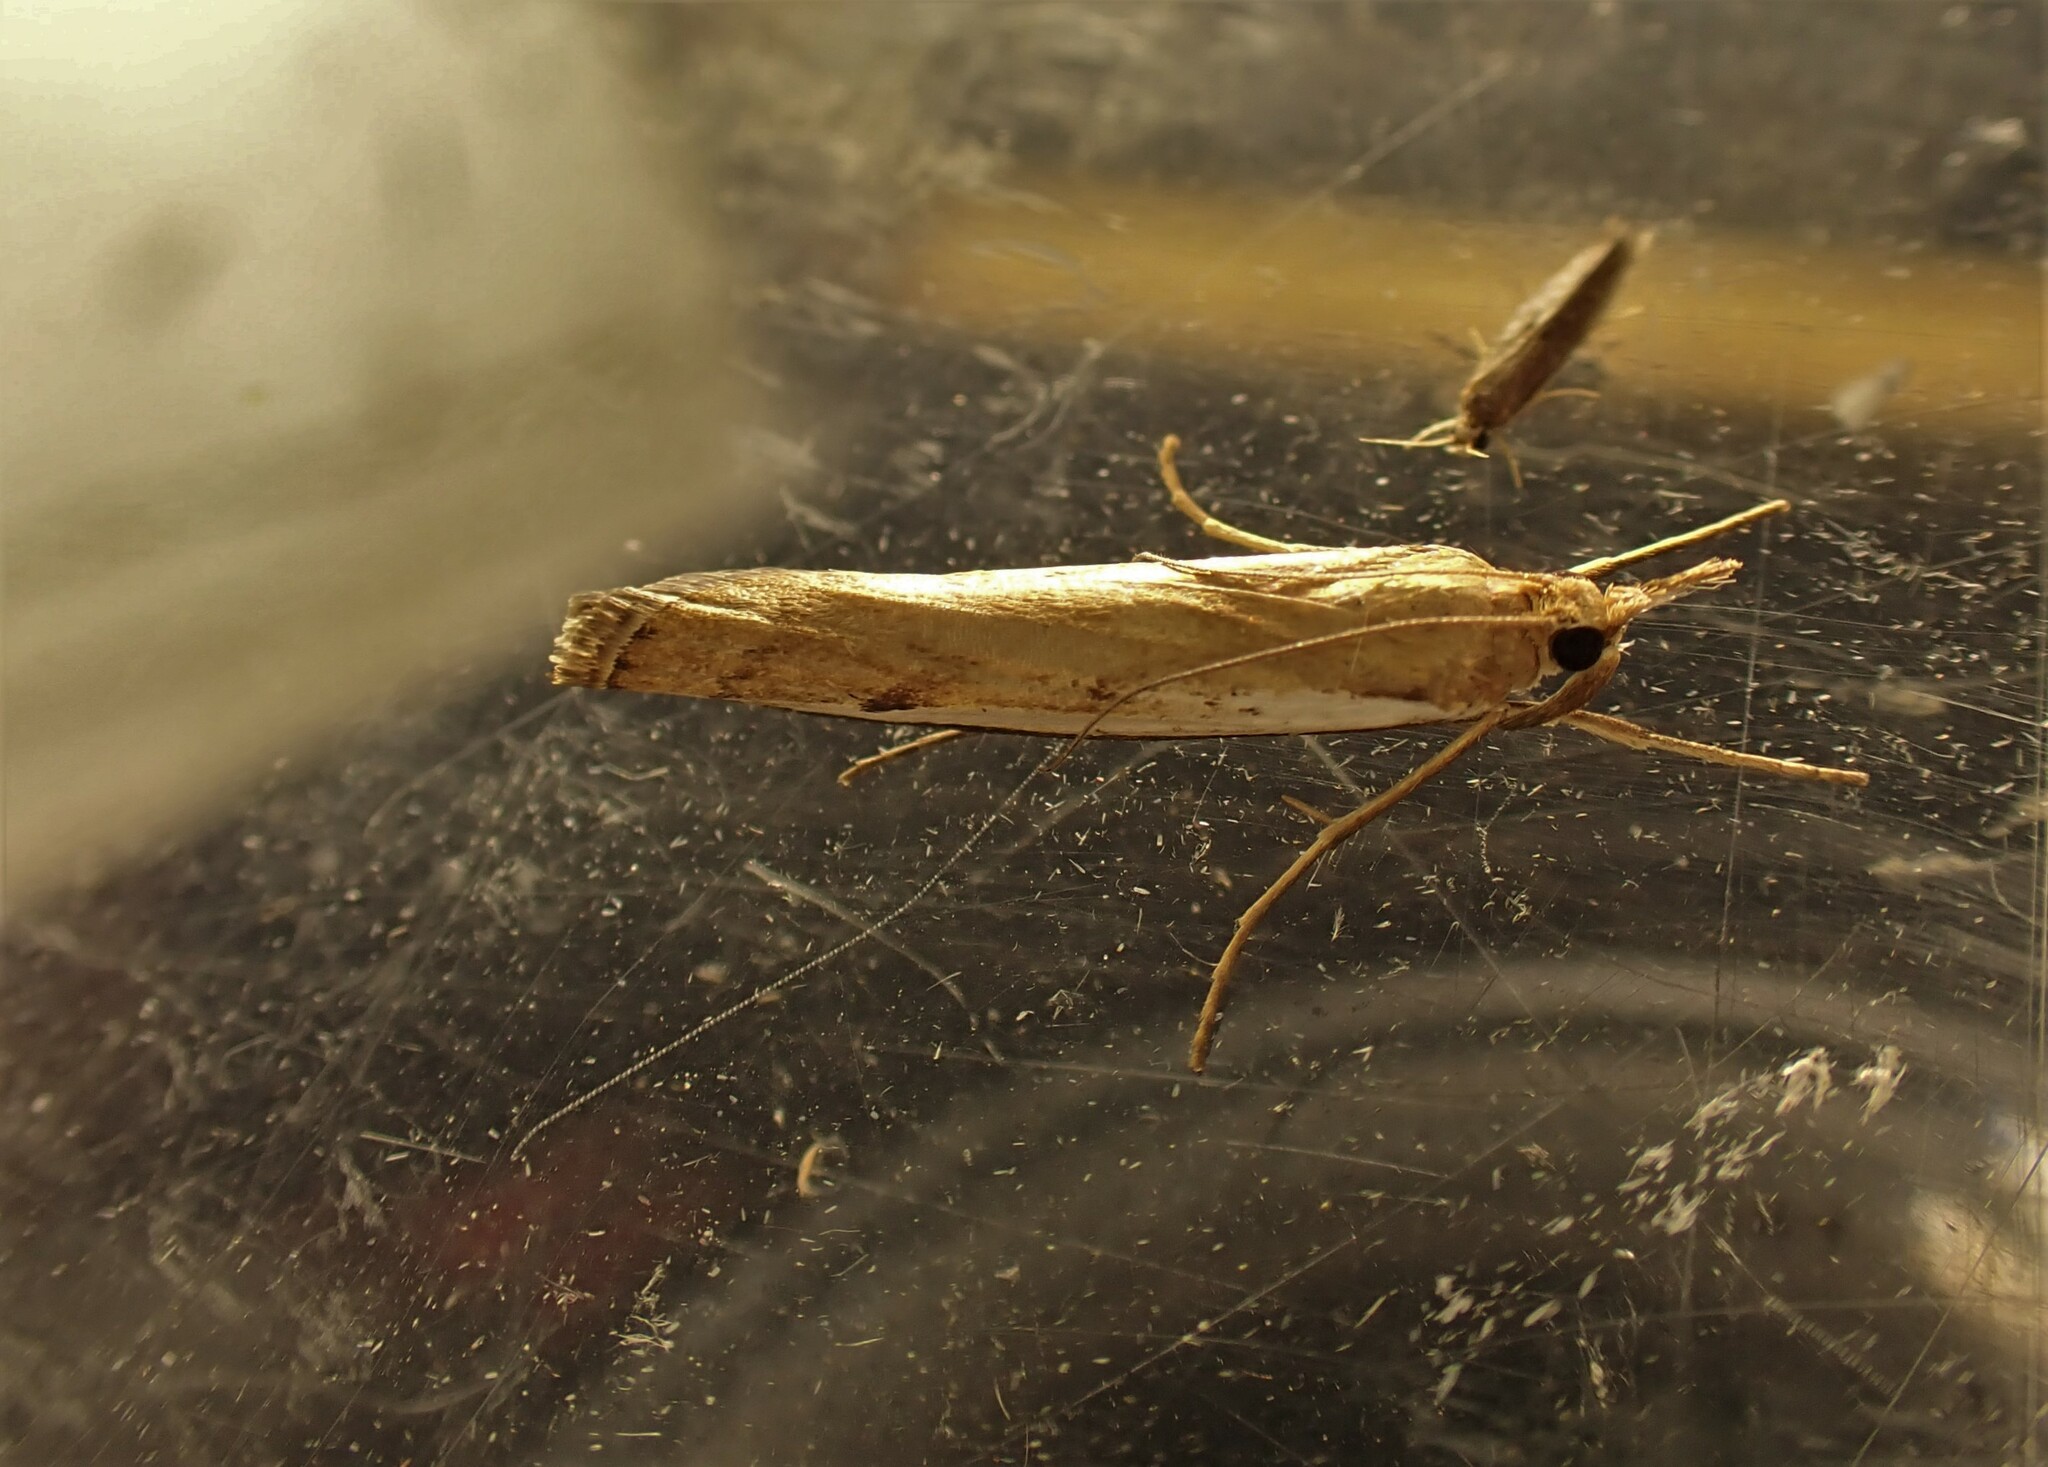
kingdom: Animalia
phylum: Arthropoda
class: Insecta
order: Lepidoptera
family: Crambidae
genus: Orocrambus
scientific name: Orocrambus flexuosellus
